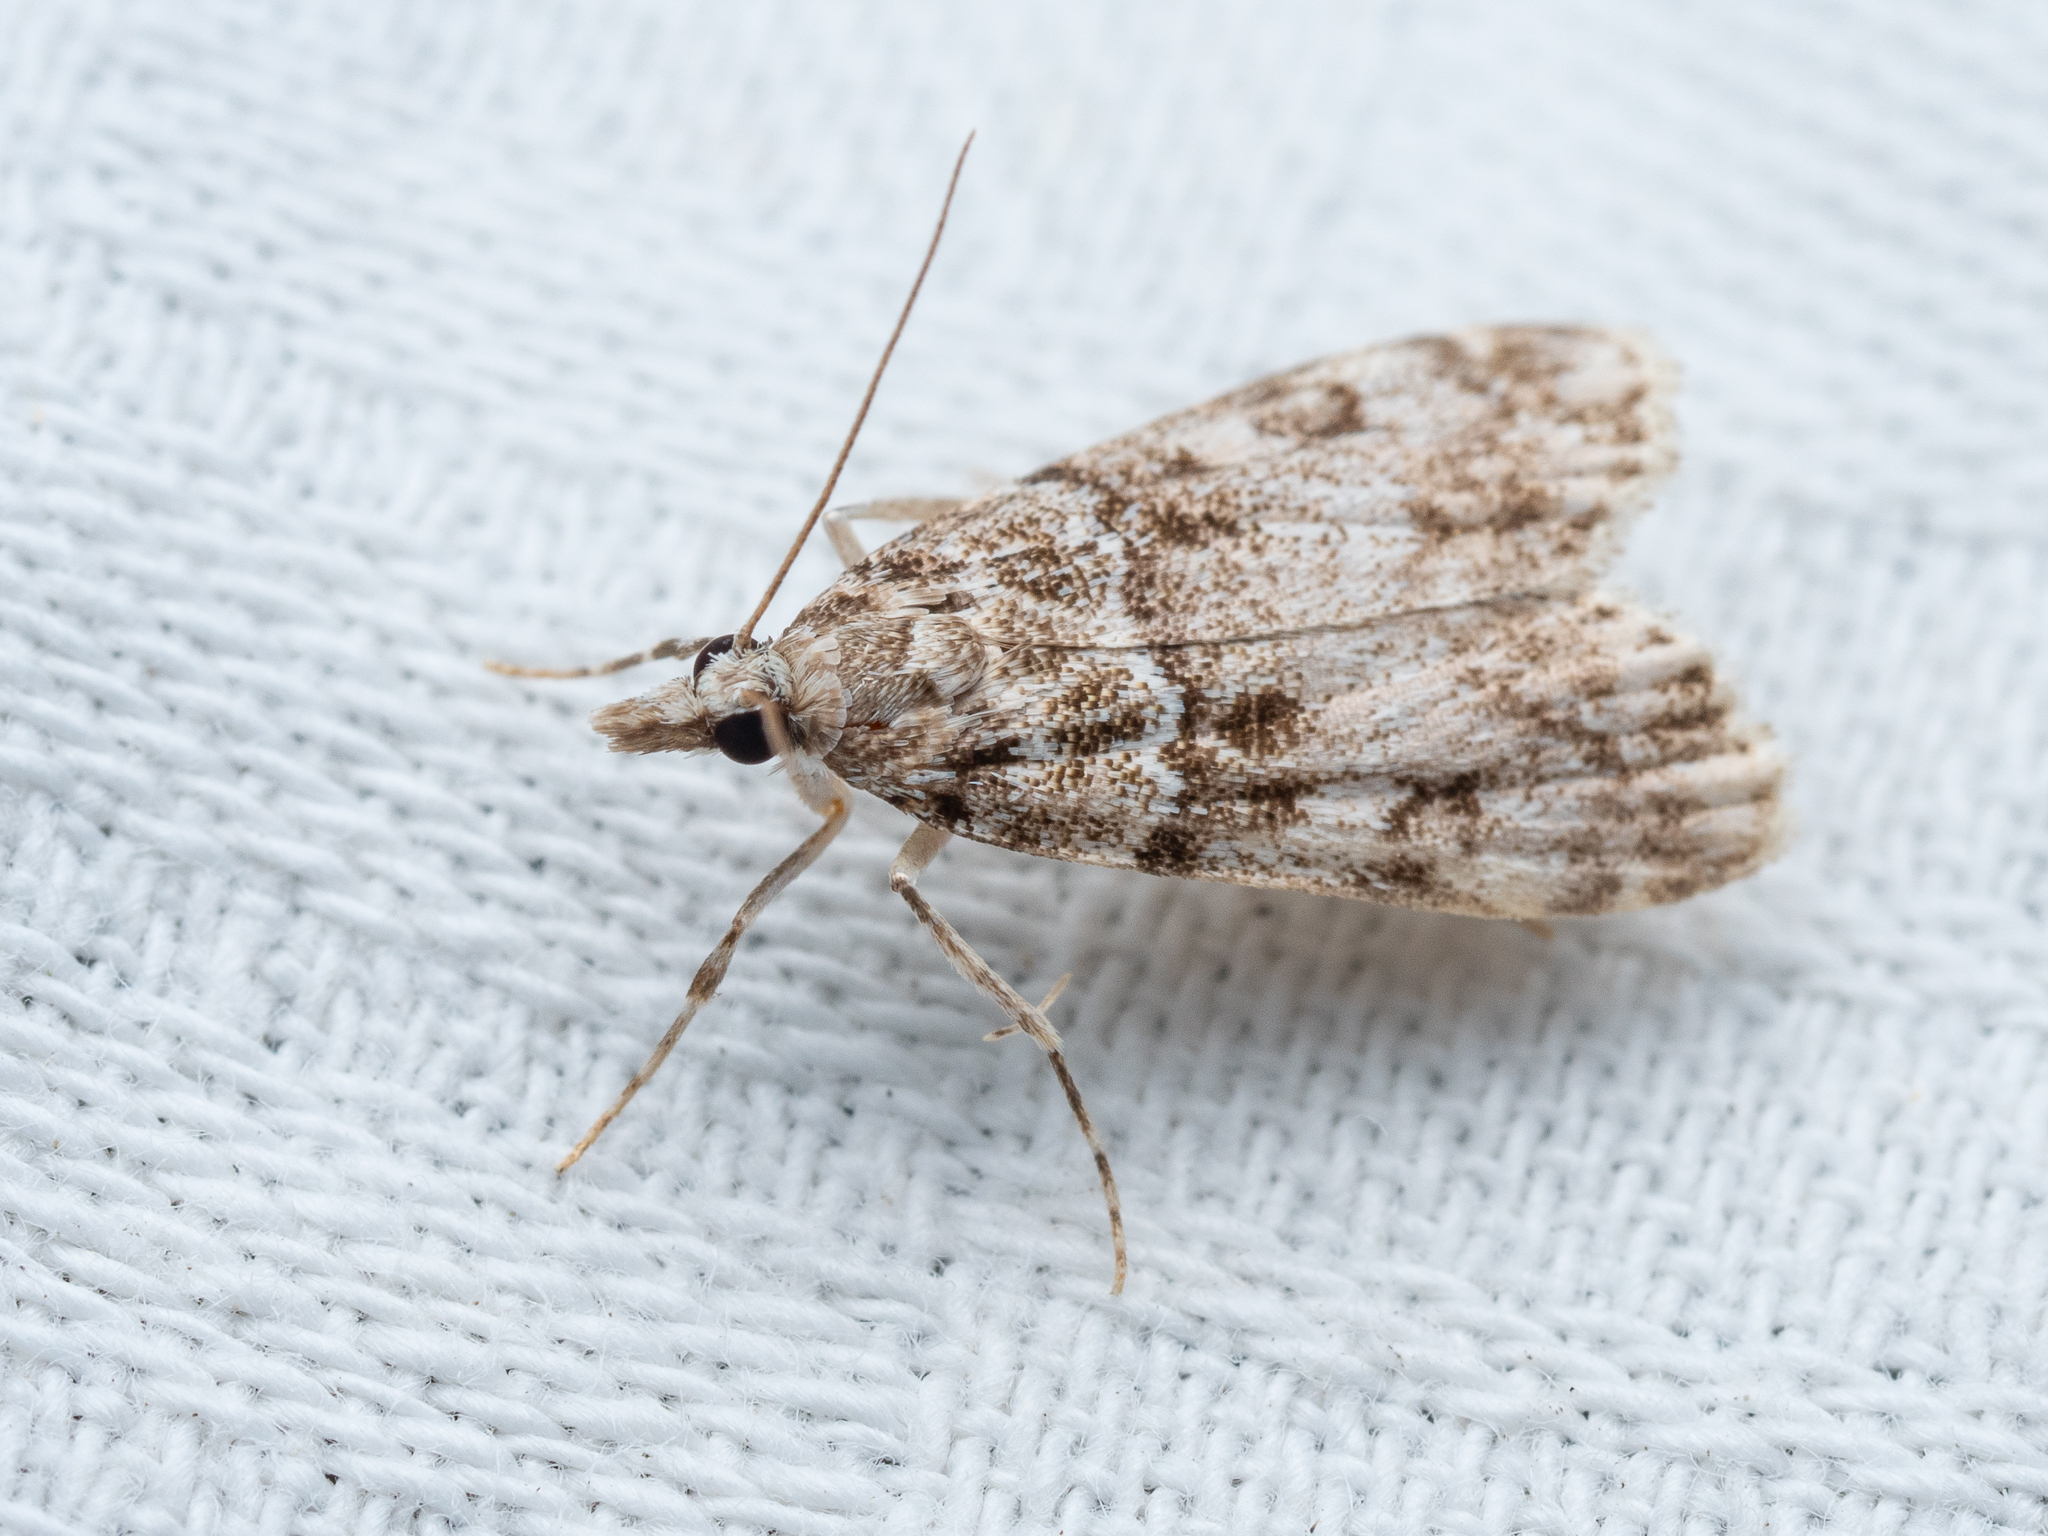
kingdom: Animalia
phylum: Arthropoda
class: Insecta
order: Lepidoptera
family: Crambidae
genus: Eudonia
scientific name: Eudonia lacustrata
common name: Little grey
